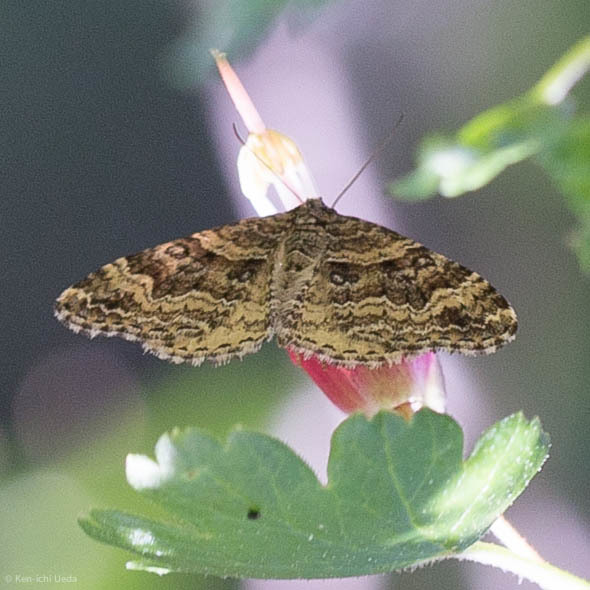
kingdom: Animalia
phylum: Arthropoda
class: Insecta
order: Lepidoptera
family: Geometridae
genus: Epirrhoe
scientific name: Epirrhoe plebeculata
